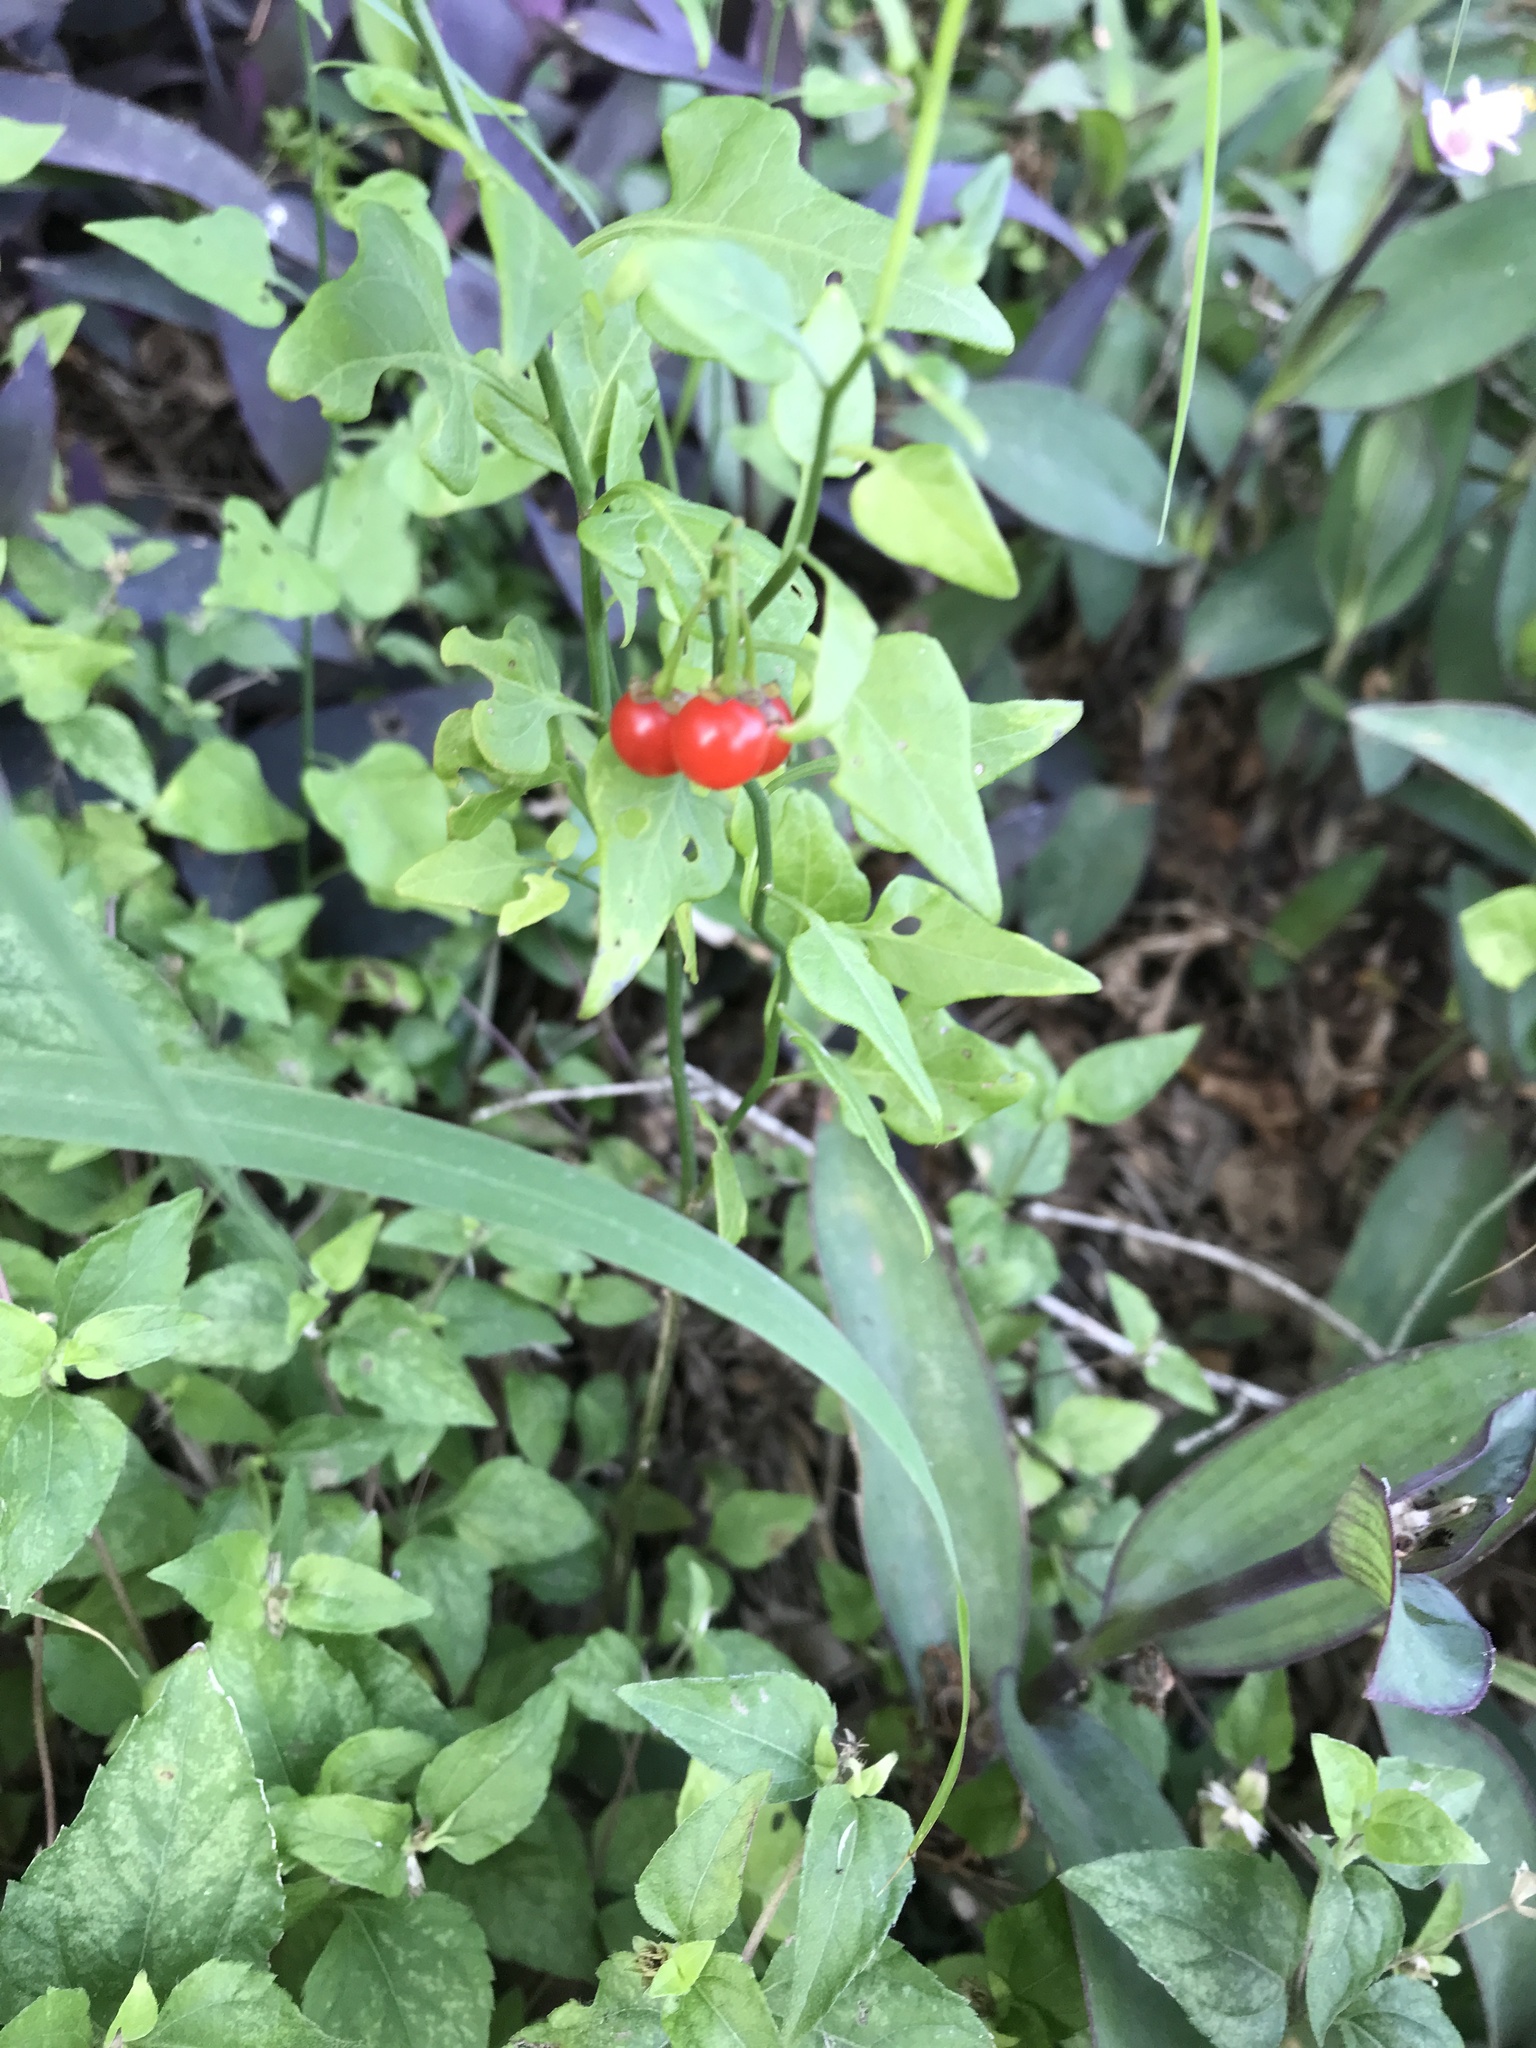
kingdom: Plantae
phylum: Tracheophyta
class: Magnoliopsida
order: Solanales
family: Solanaceae
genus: Solanum
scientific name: Solanum triquetrum
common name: Texas nightshade
